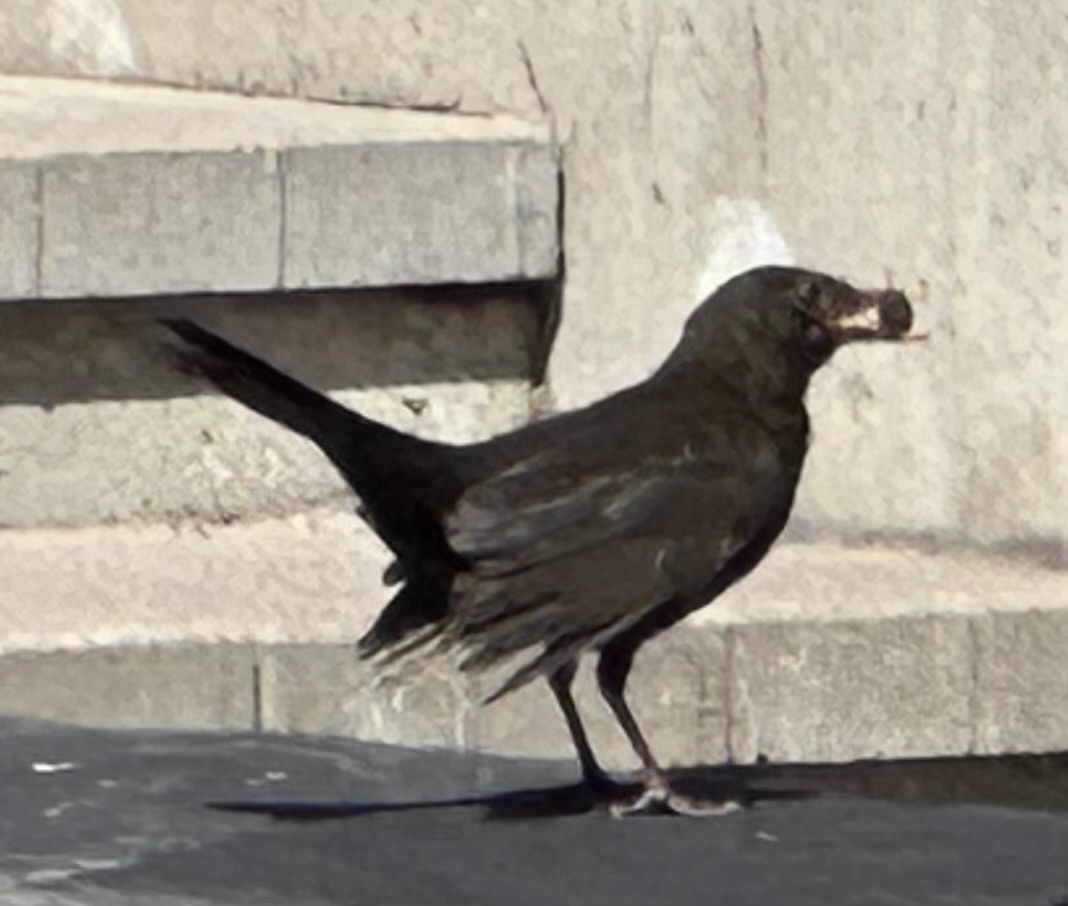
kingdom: Animalia
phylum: Chordata
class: Aves
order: Passeriformes
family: Turdidae
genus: Turdus
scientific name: Turdus merula
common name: Common blackbird
